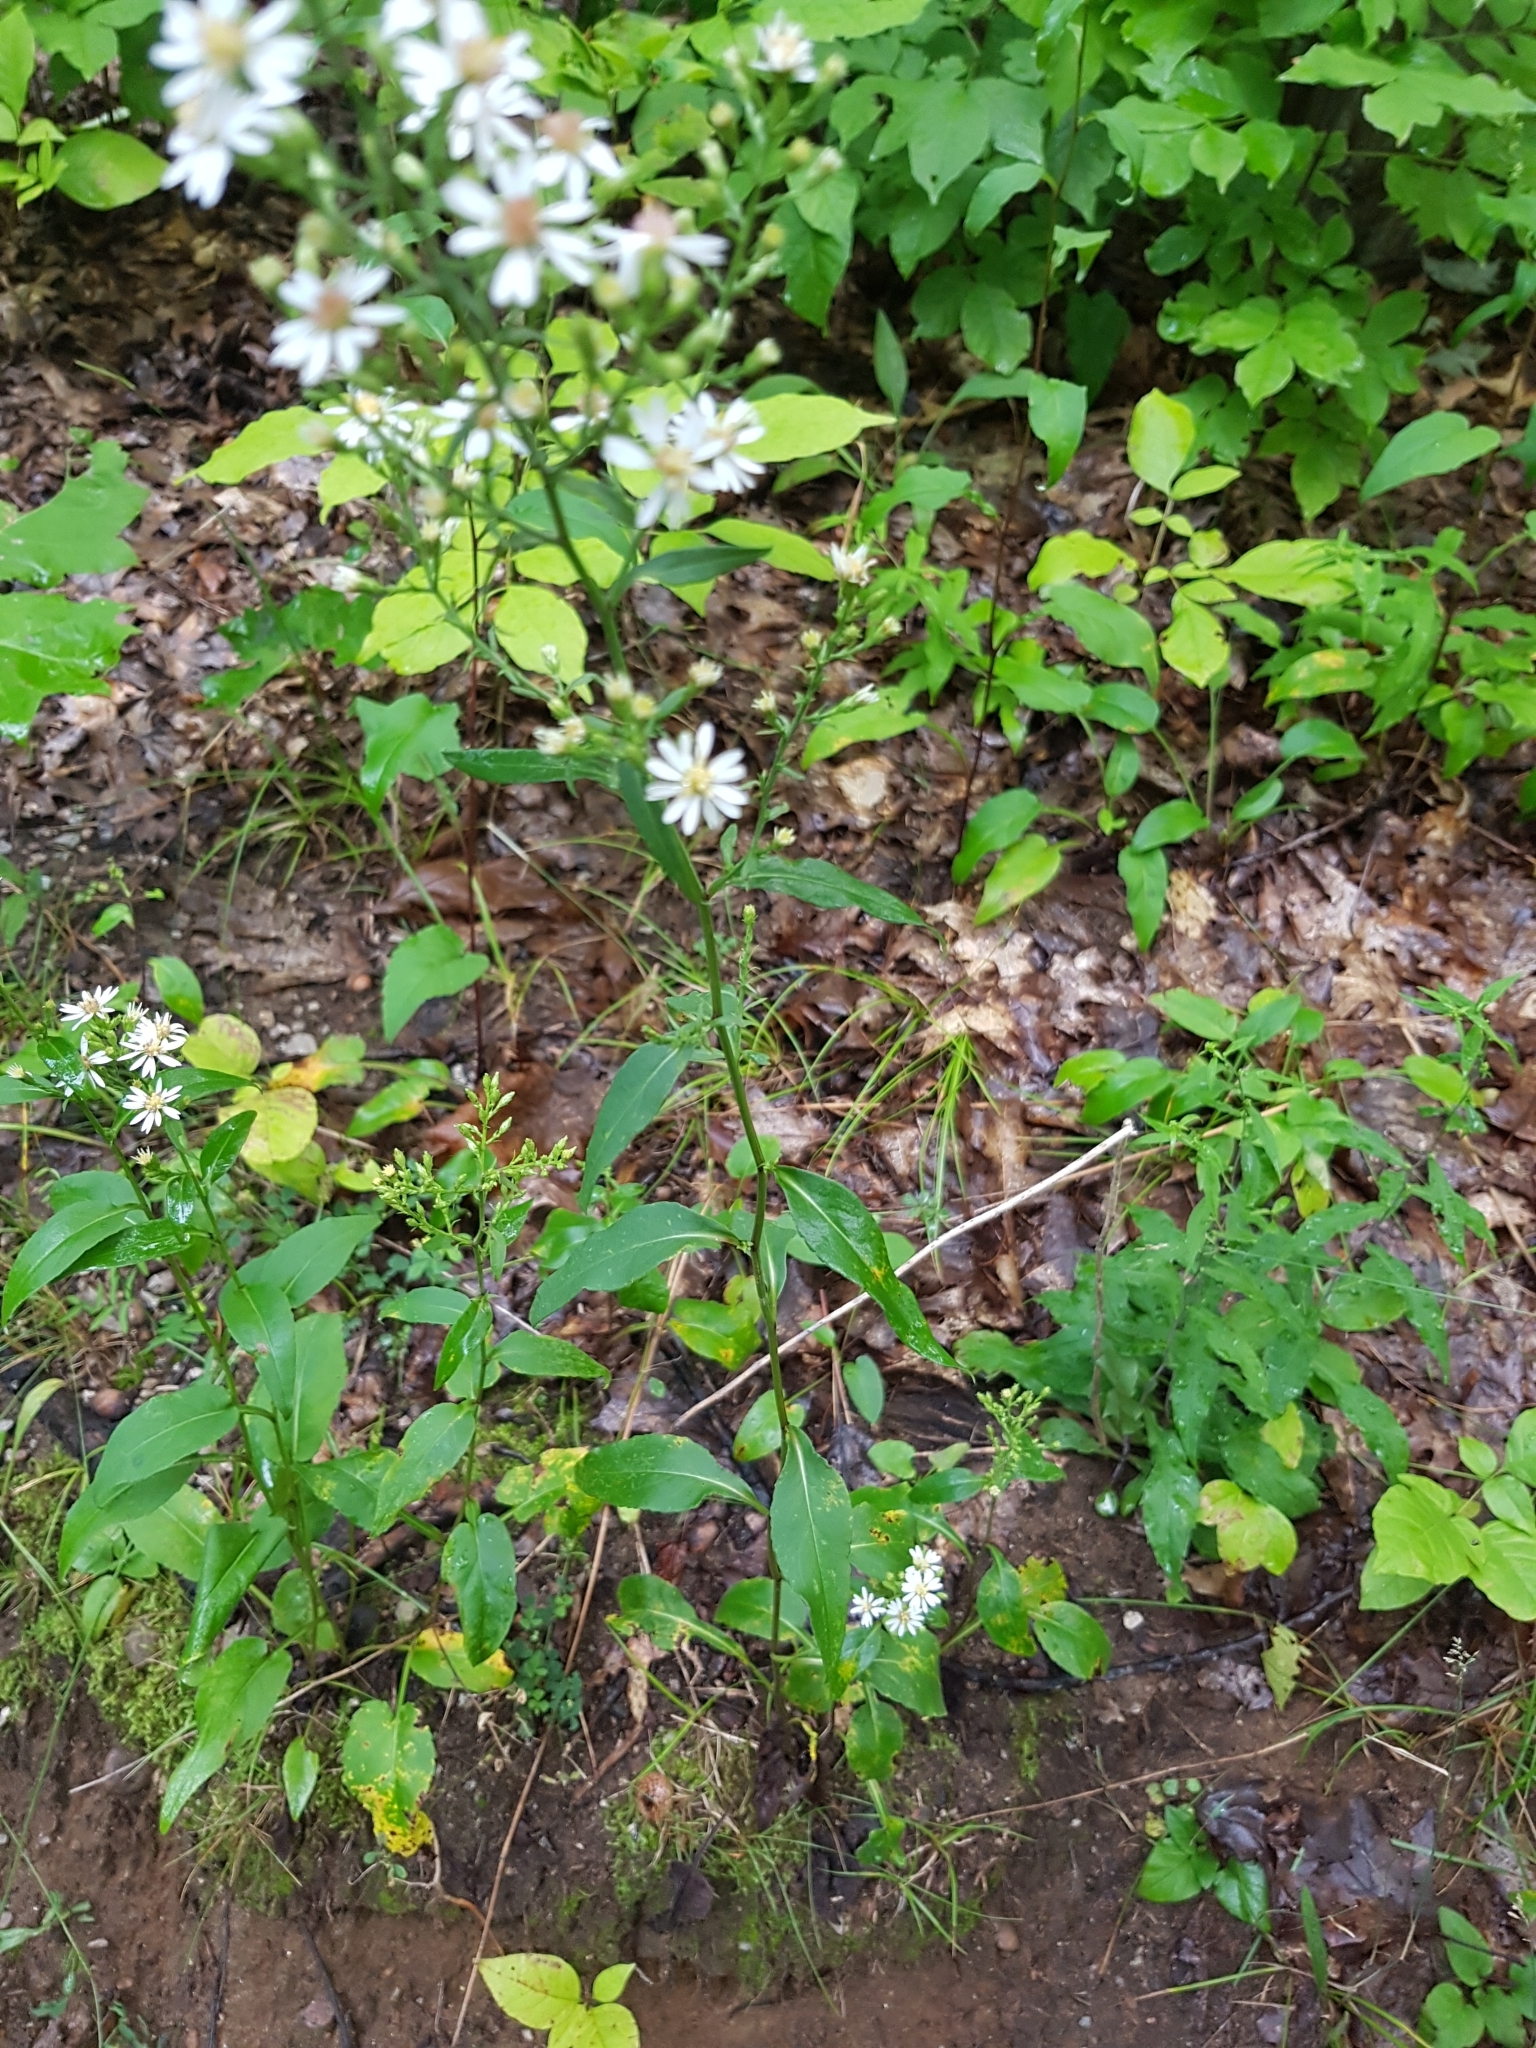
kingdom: Plantae
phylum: Tracheophyta
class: Magnoliopsida
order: Asterales
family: Asteraceae
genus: Symphyotrichum
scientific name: Symphyotrichum urophyllum
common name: Arrow-leaved aster
